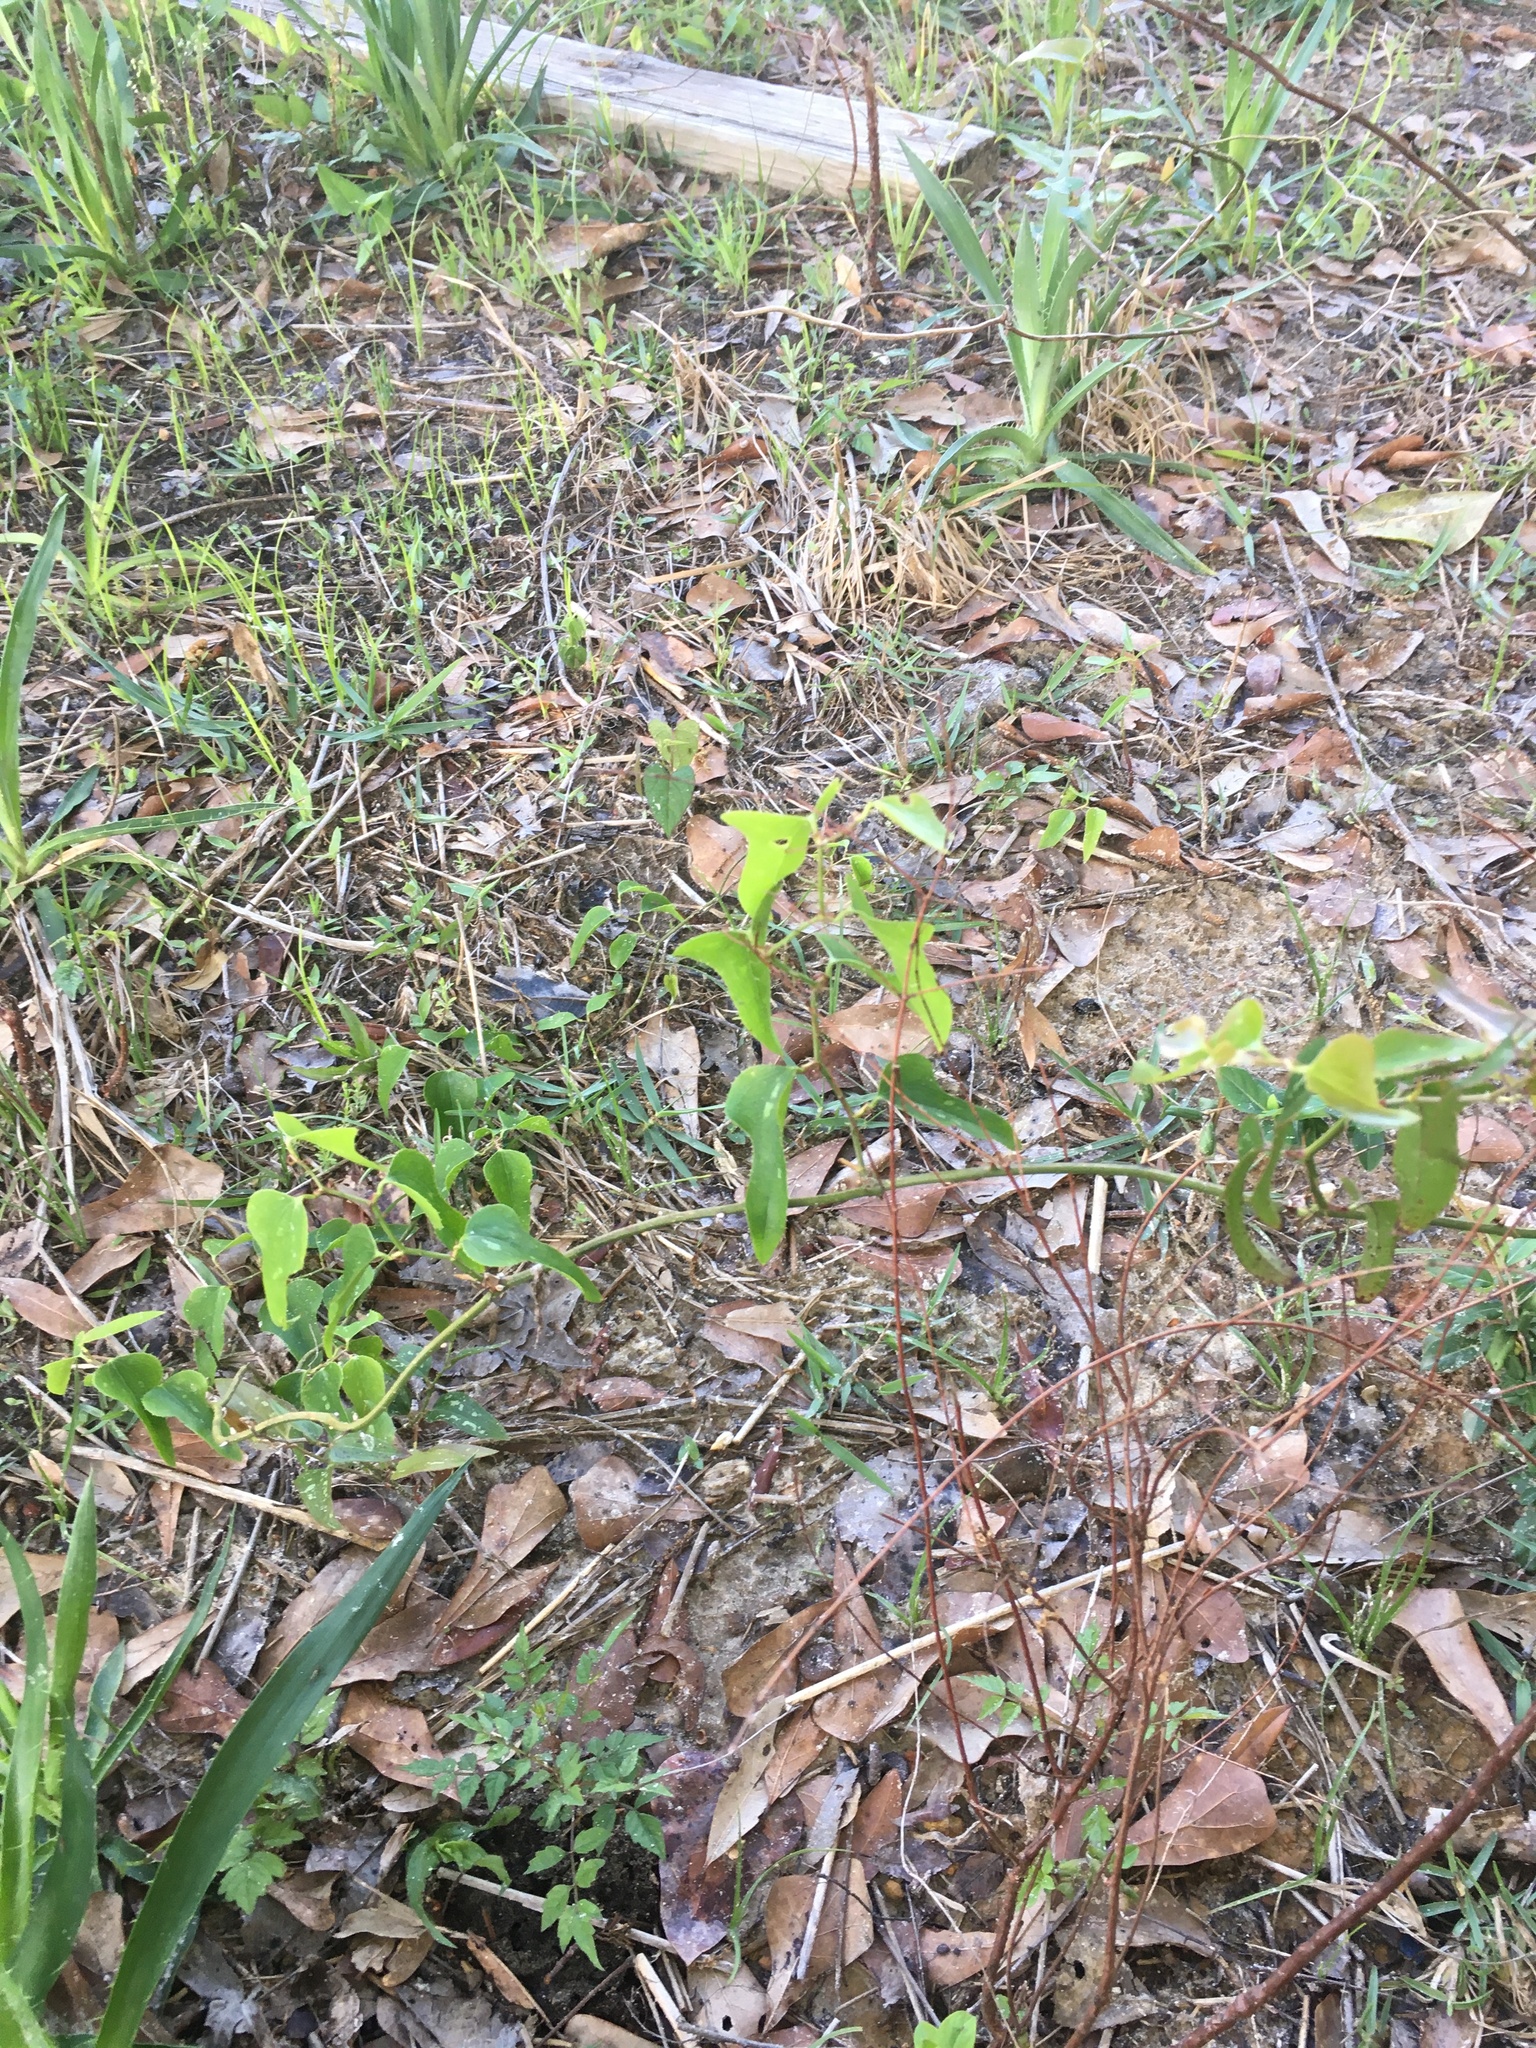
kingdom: Plantae
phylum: Tracheophyta
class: Liliopsida
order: Liliales
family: Smilacaceae
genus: Smilax
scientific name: Smilax bona-nox
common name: Catbrier
